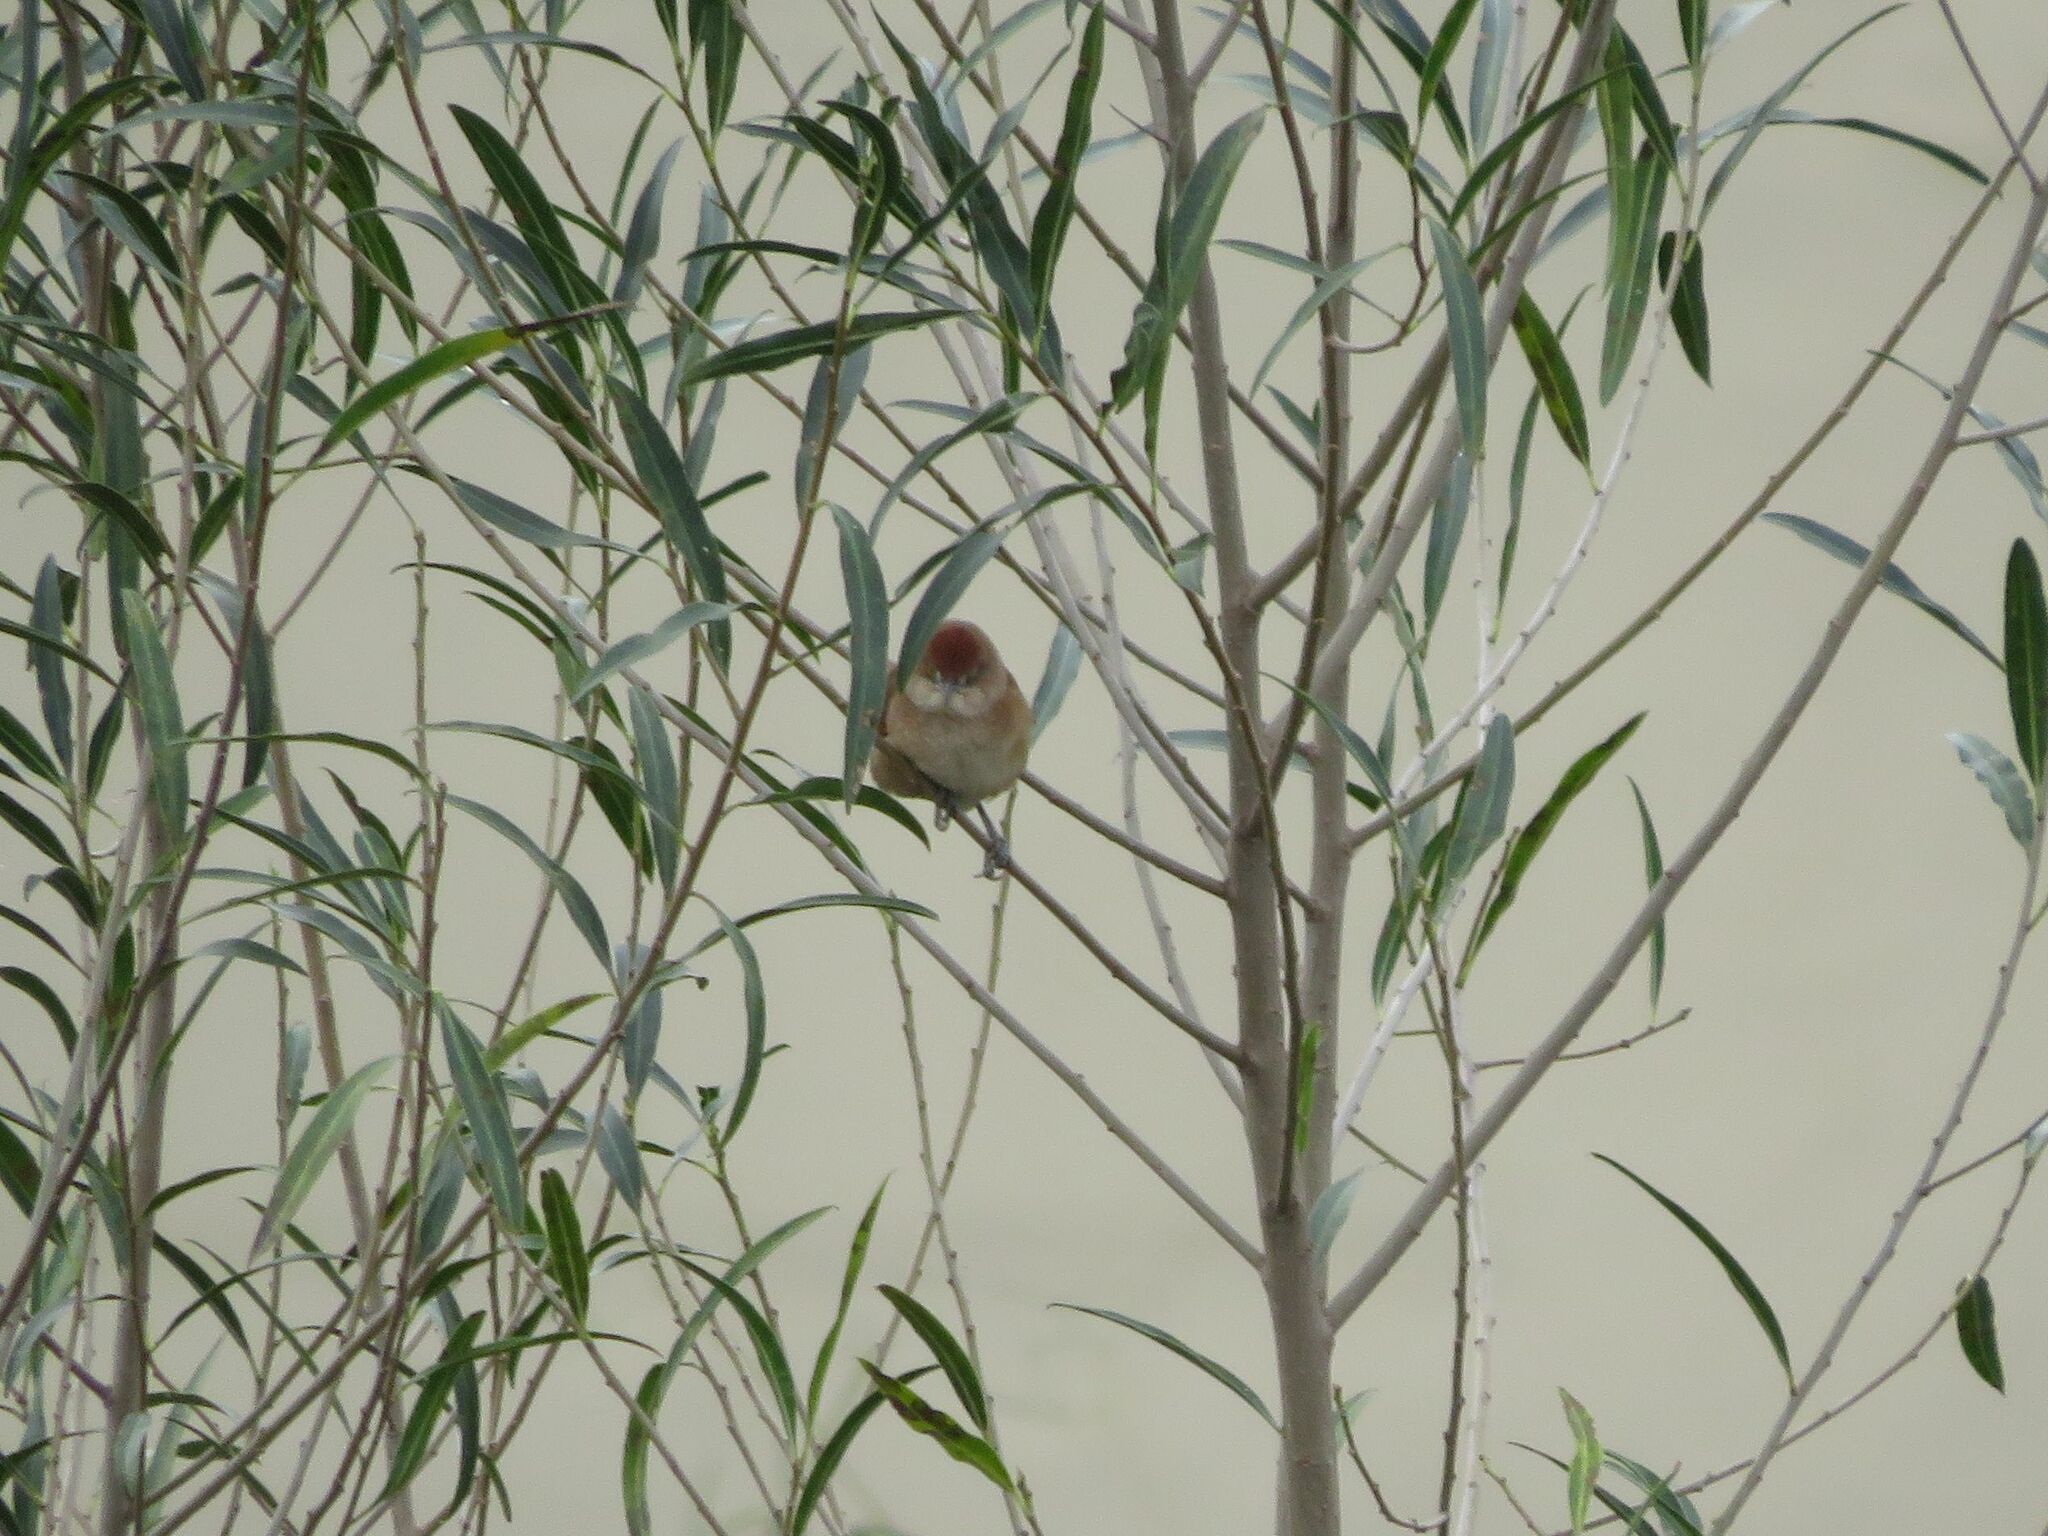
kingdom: Animalia
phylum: Chordata
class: Aves
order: Passeriformes
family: Furnariidae
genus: Phacellodomus
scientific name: Phacellodomus ruber
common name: Greater thornbird
